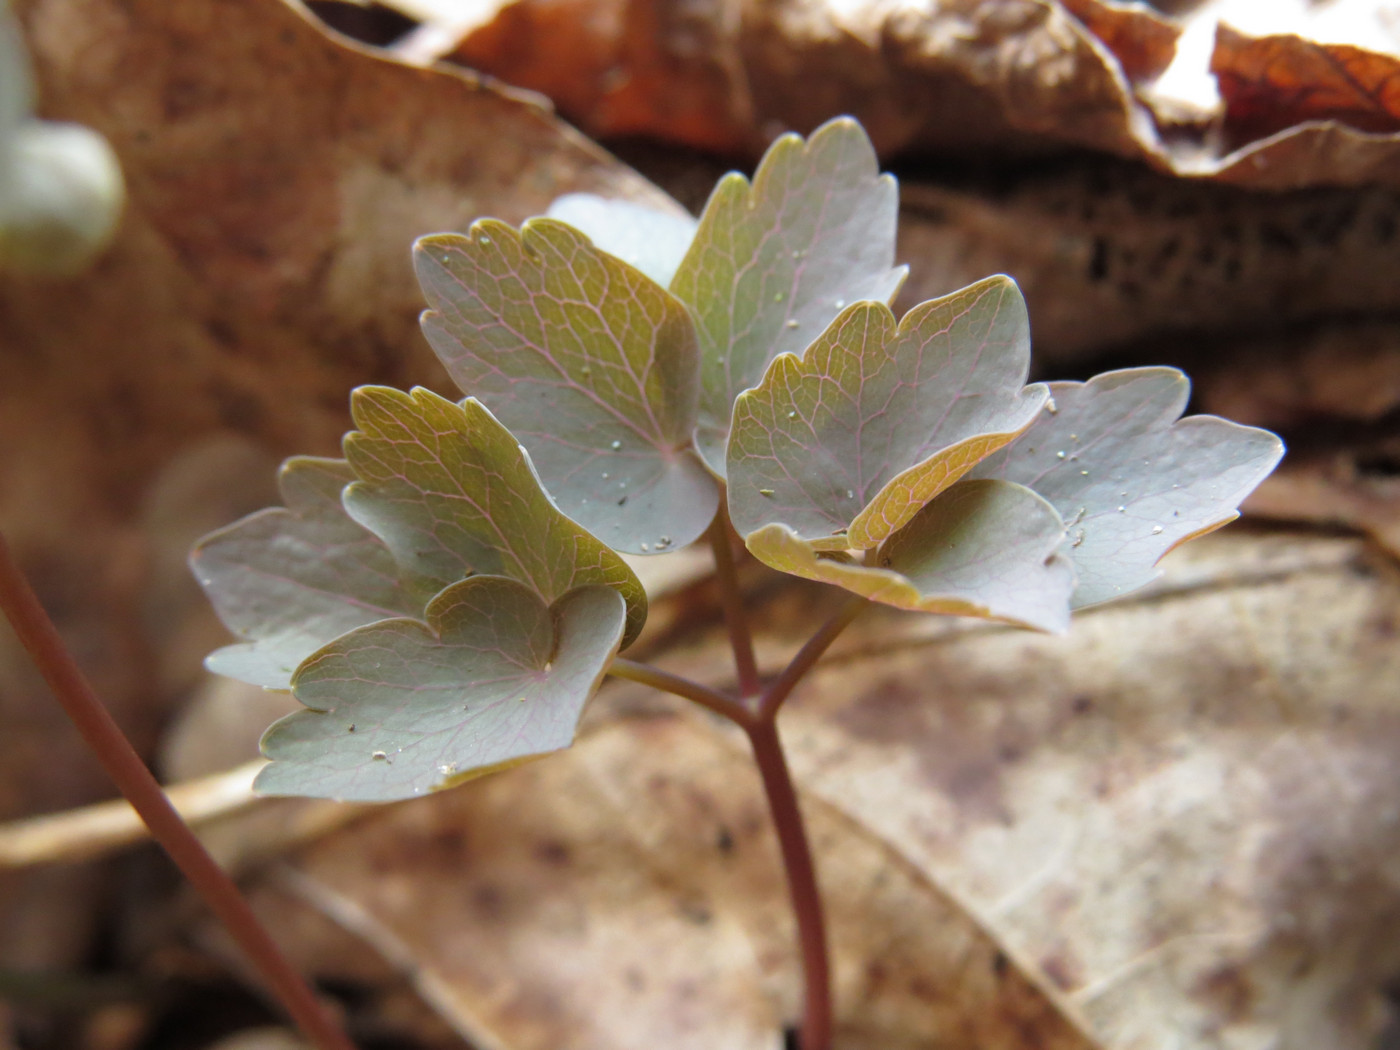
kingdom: Plantae
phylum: Tracheophyta
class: Magnoliopsida
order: Ranunculales
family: Ranunculaceae
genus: Thalictrum
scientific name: Thalictrum thalictroides
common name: Rue-anemone
